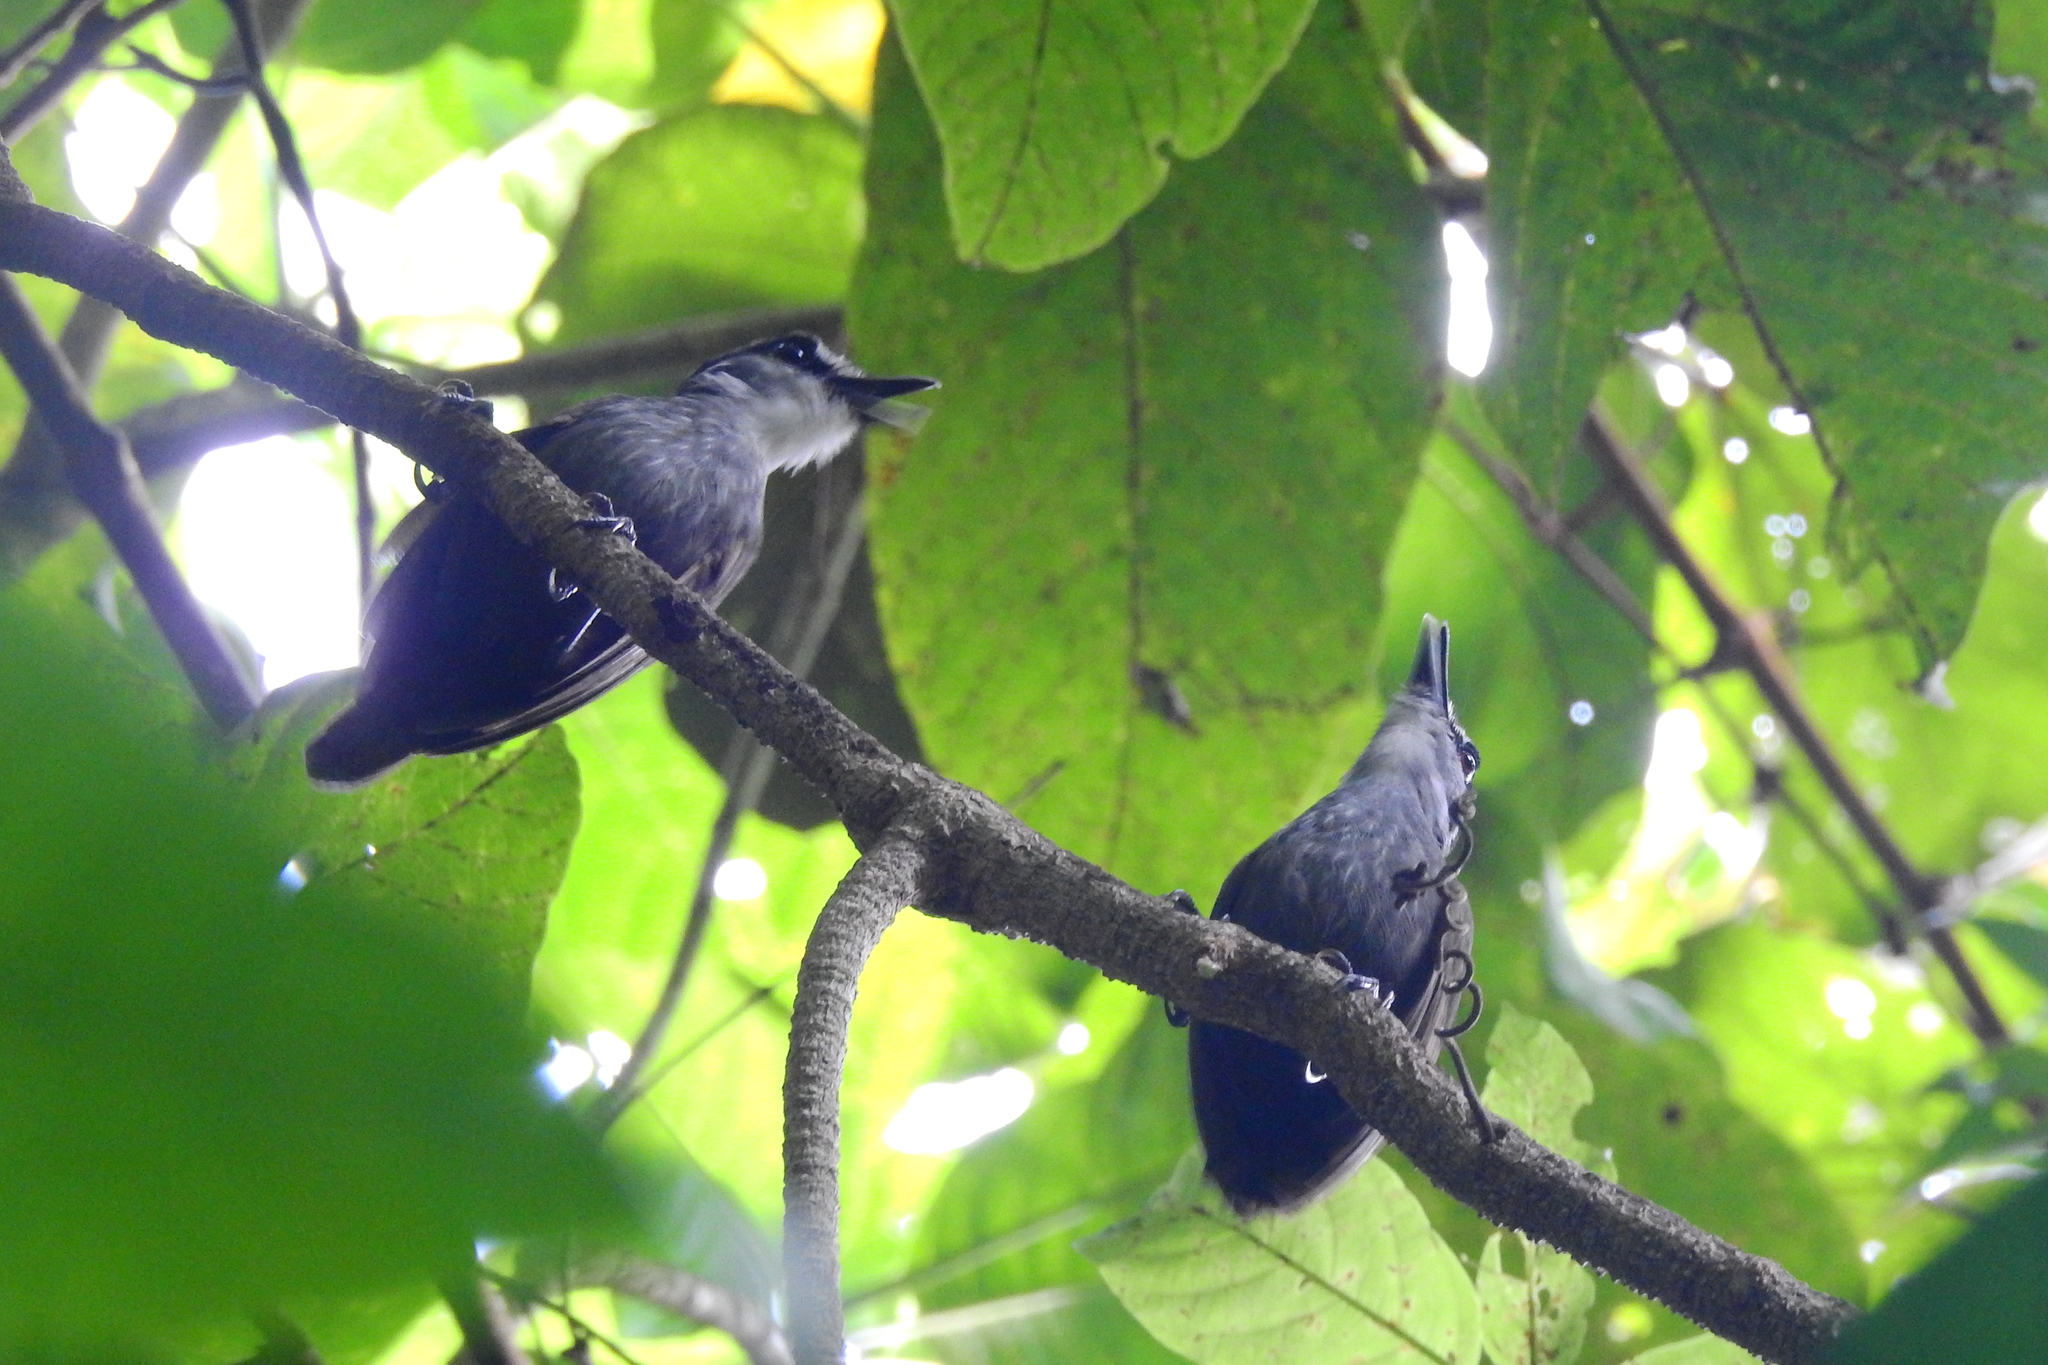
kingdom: Animalia
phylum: Chordata
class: Aves
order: Passeriformes
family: Pellorneidae
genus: Malacocincla
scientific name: Malacocincla perspicillata
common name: Black-browed babbler
